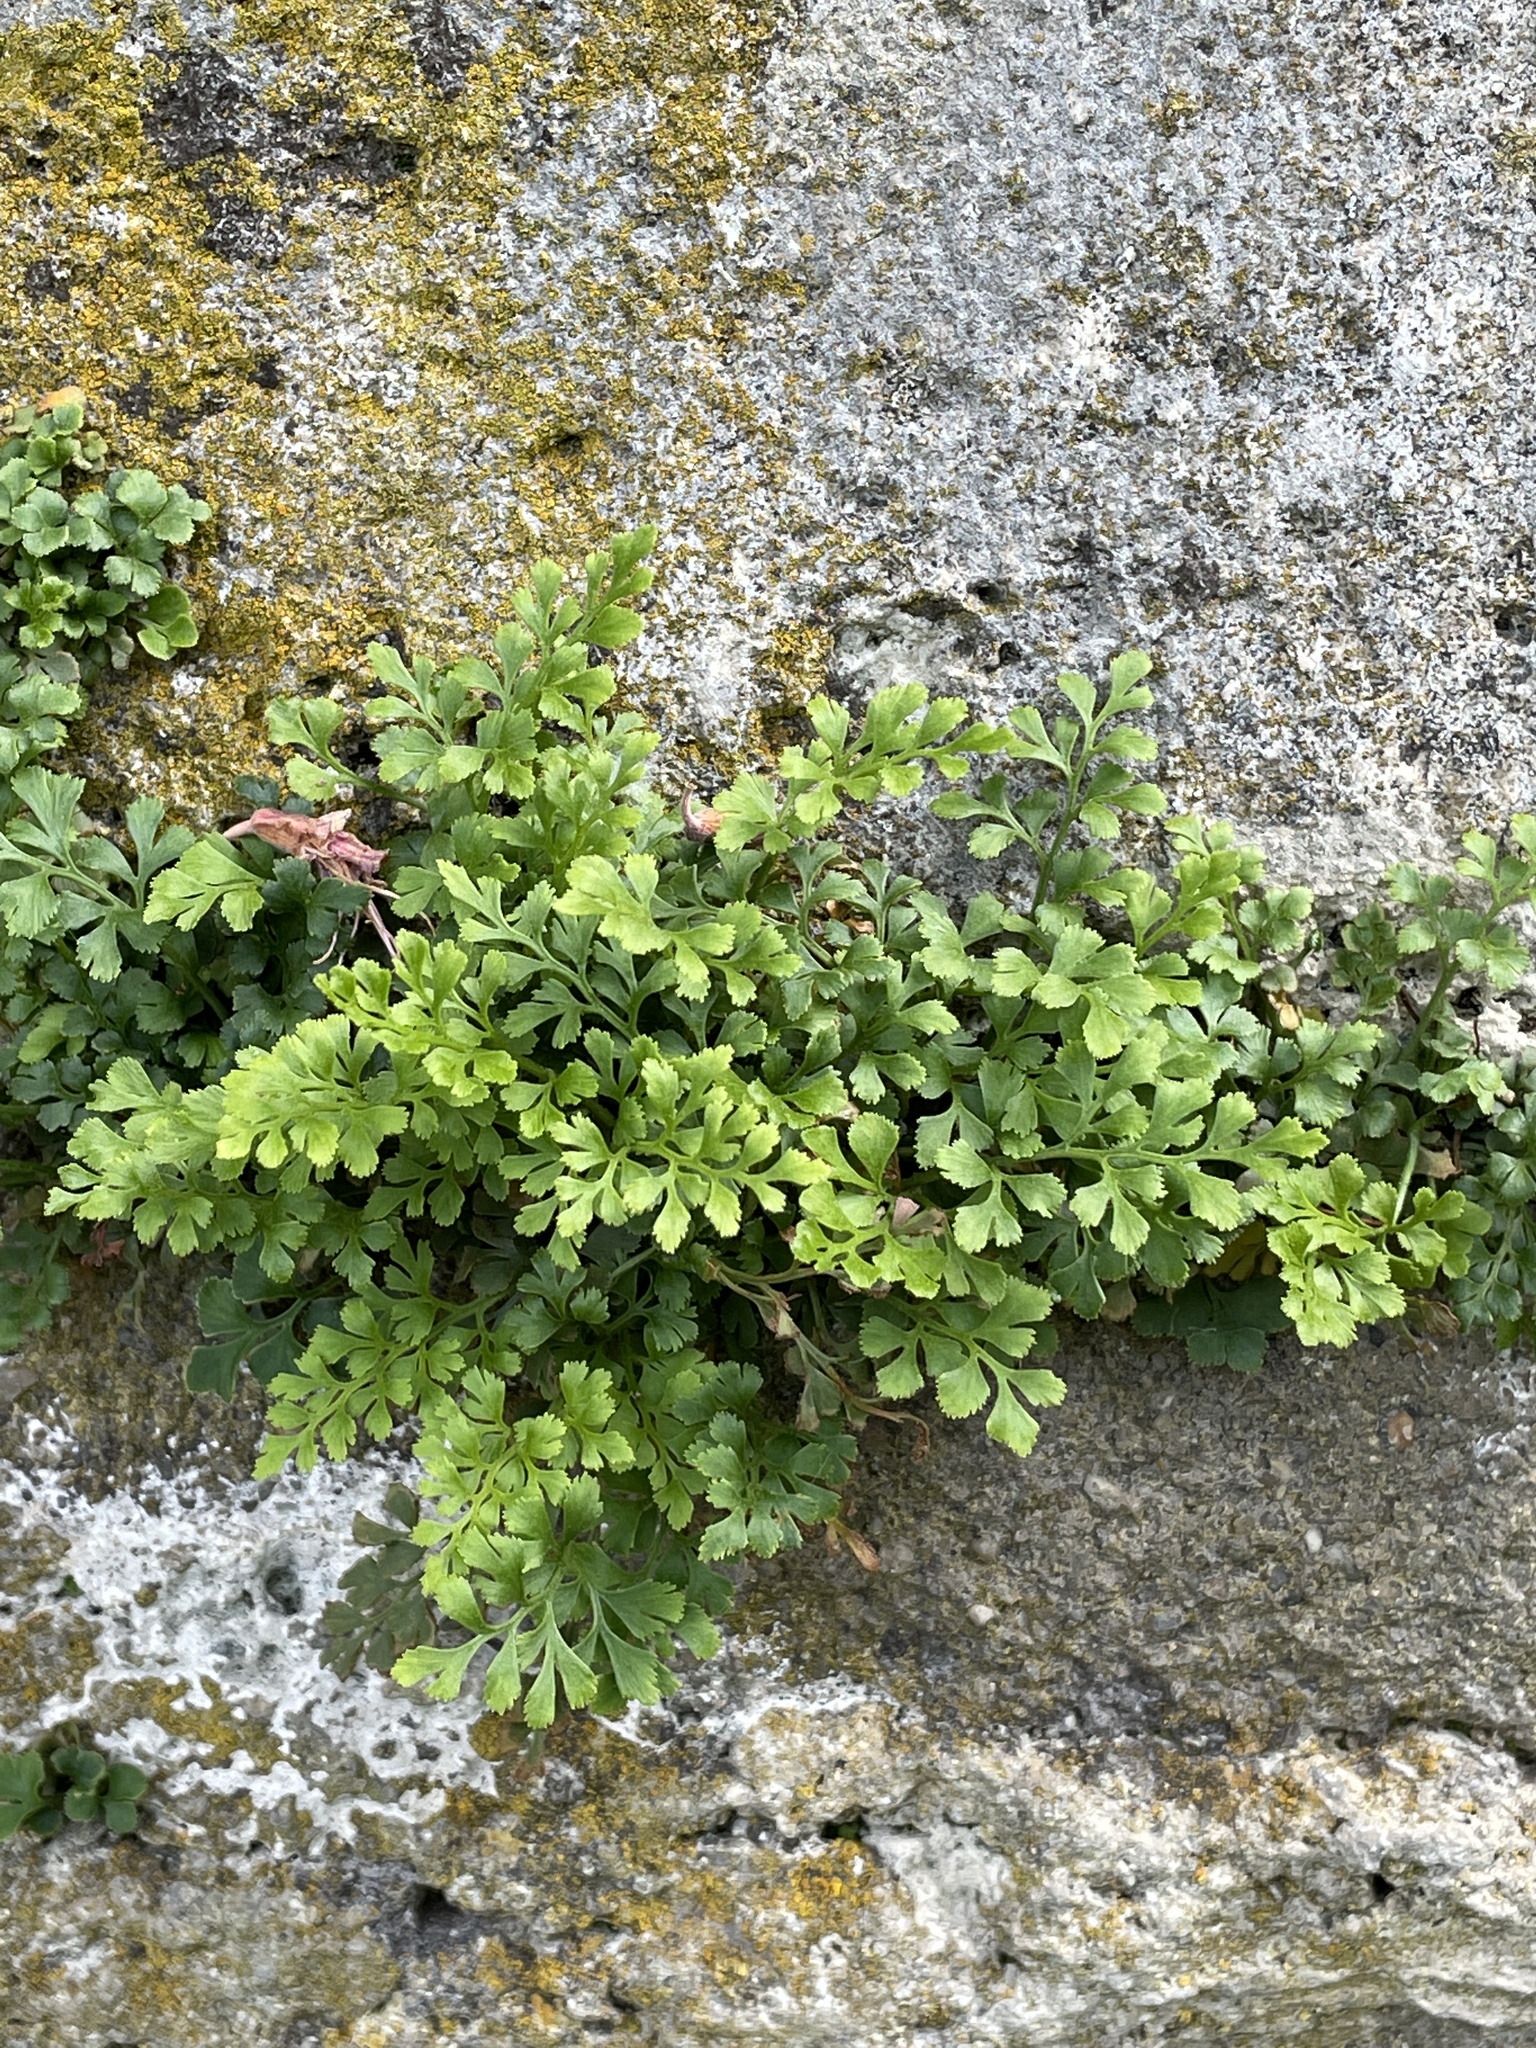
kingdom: Plantae
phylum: Tracheophyta
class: Polypodiopsida
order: Polypodiales
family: Aspleniaceae
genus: Asplenium
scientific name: Asplenium ruta-muraria
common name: Wall-rue
